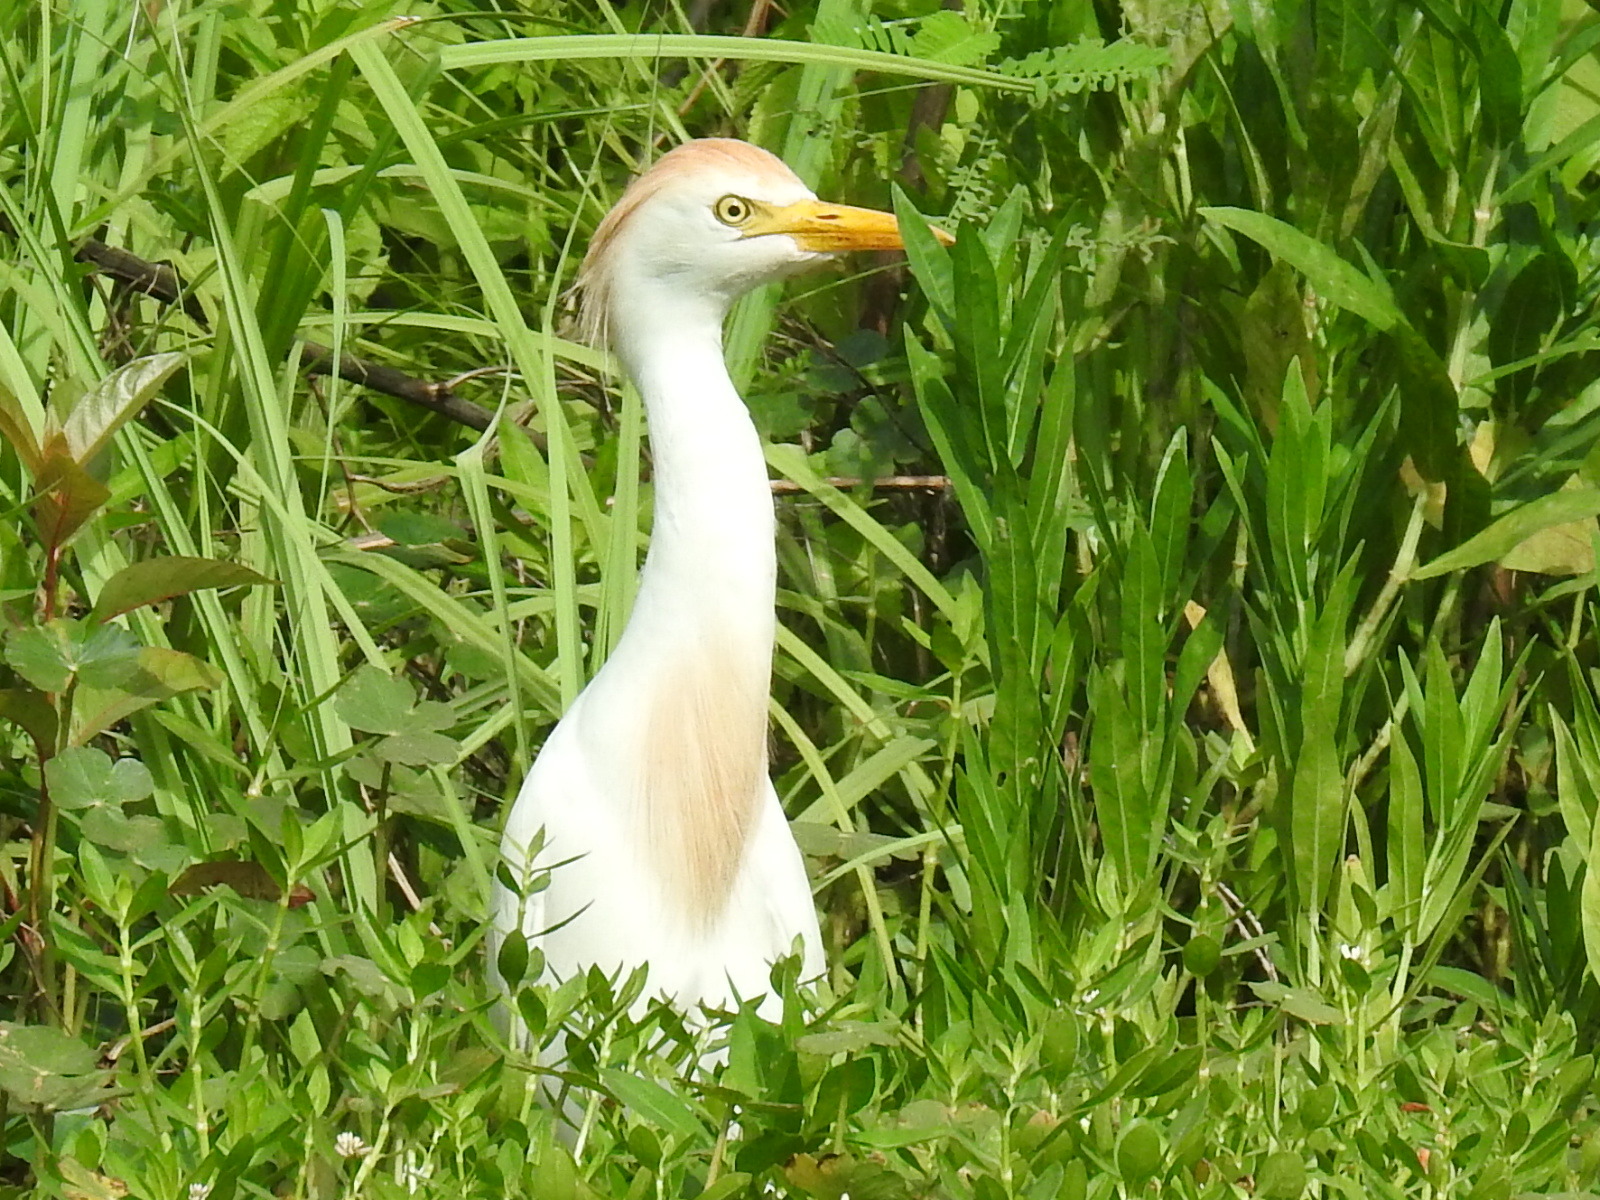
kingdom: Animalia
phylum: Chordata
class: Aves
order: Pelecaniformes
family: Ardeidae
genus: Bubulcus
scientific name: Bubulcus ibis
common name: Cattle egret
